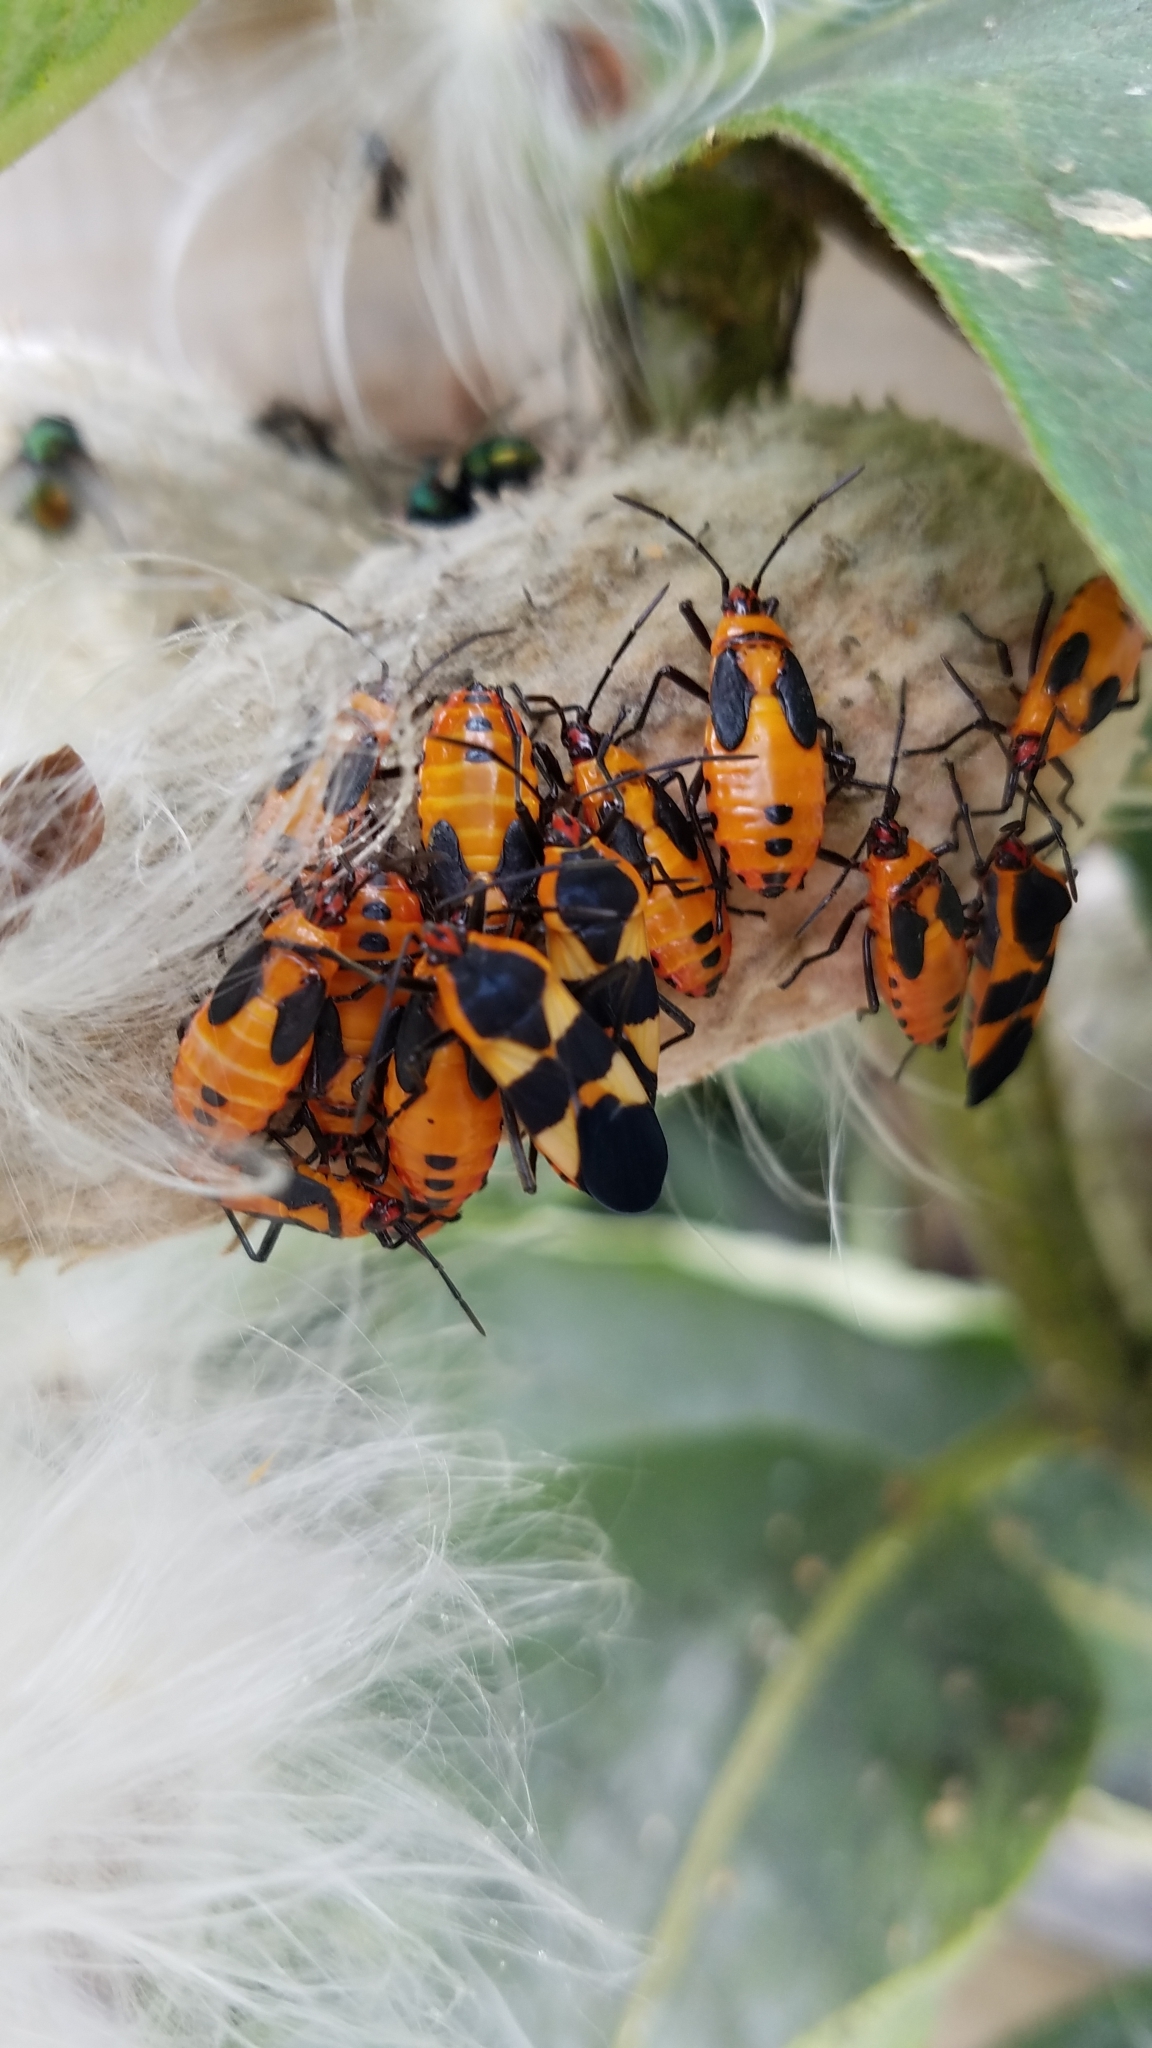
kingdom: Animalia
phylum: Arthropoda
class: Insecta
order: Hemiptera
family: Lygaeidae
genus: Oncopeltus
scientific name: Oncopeltus fasciatus
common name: Large milkweed bug
